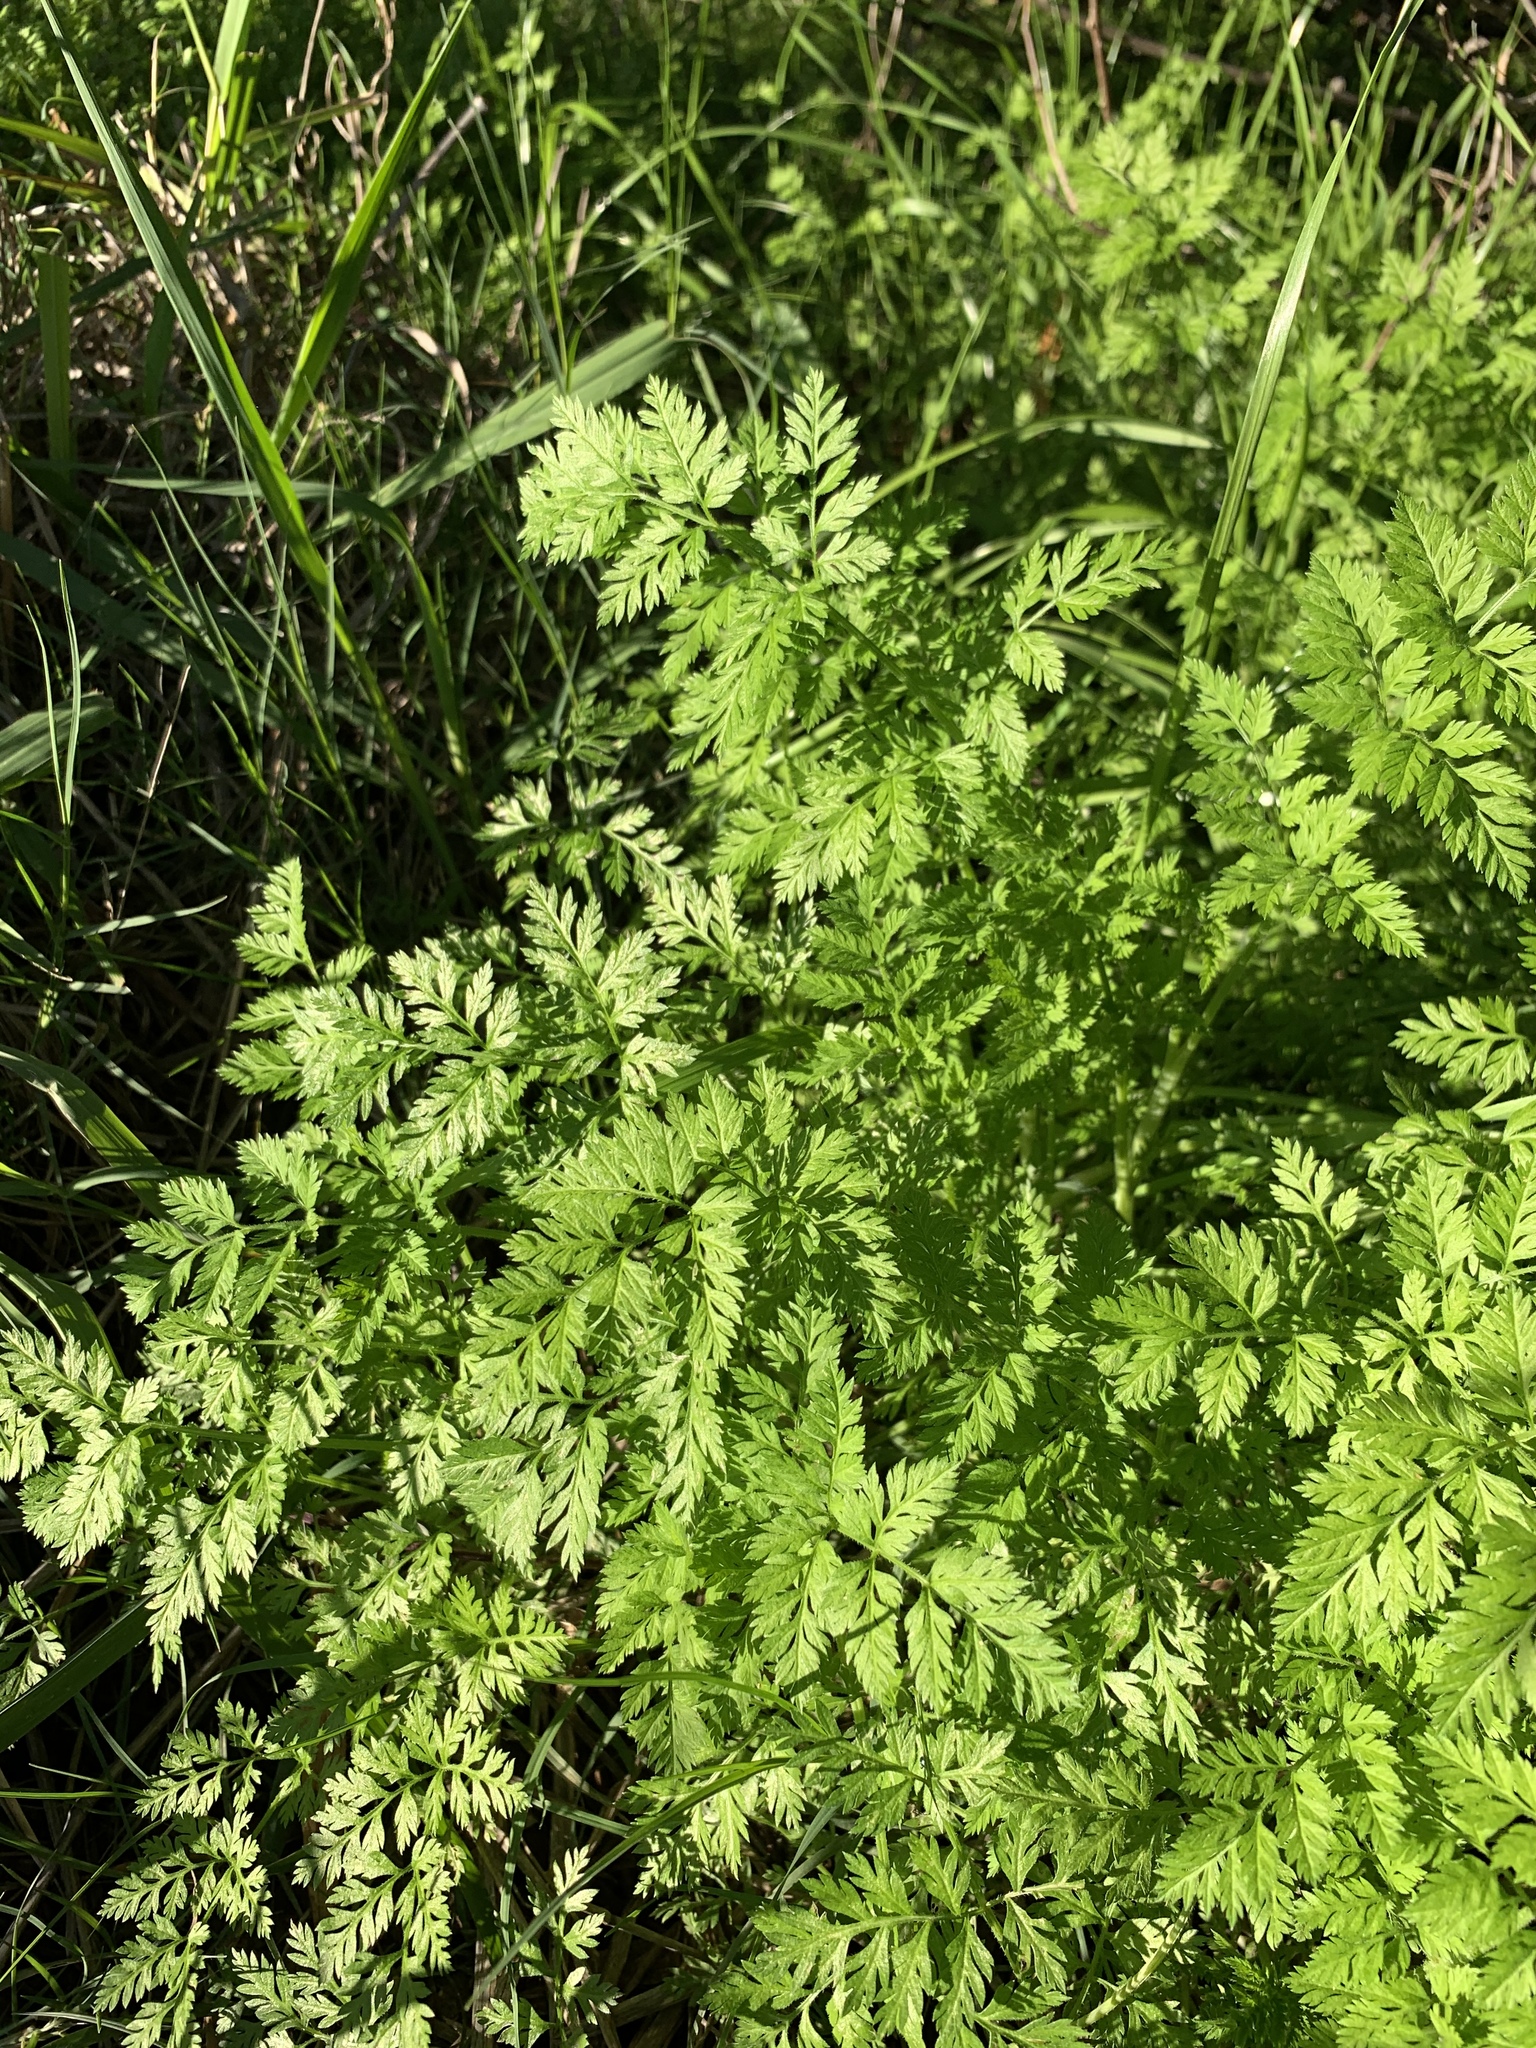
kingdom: Plantae
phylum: Tracheophyta
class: Magnoliopsida
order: Apiales
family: Apiaceae
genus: Torilis
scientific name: Torilis africana
